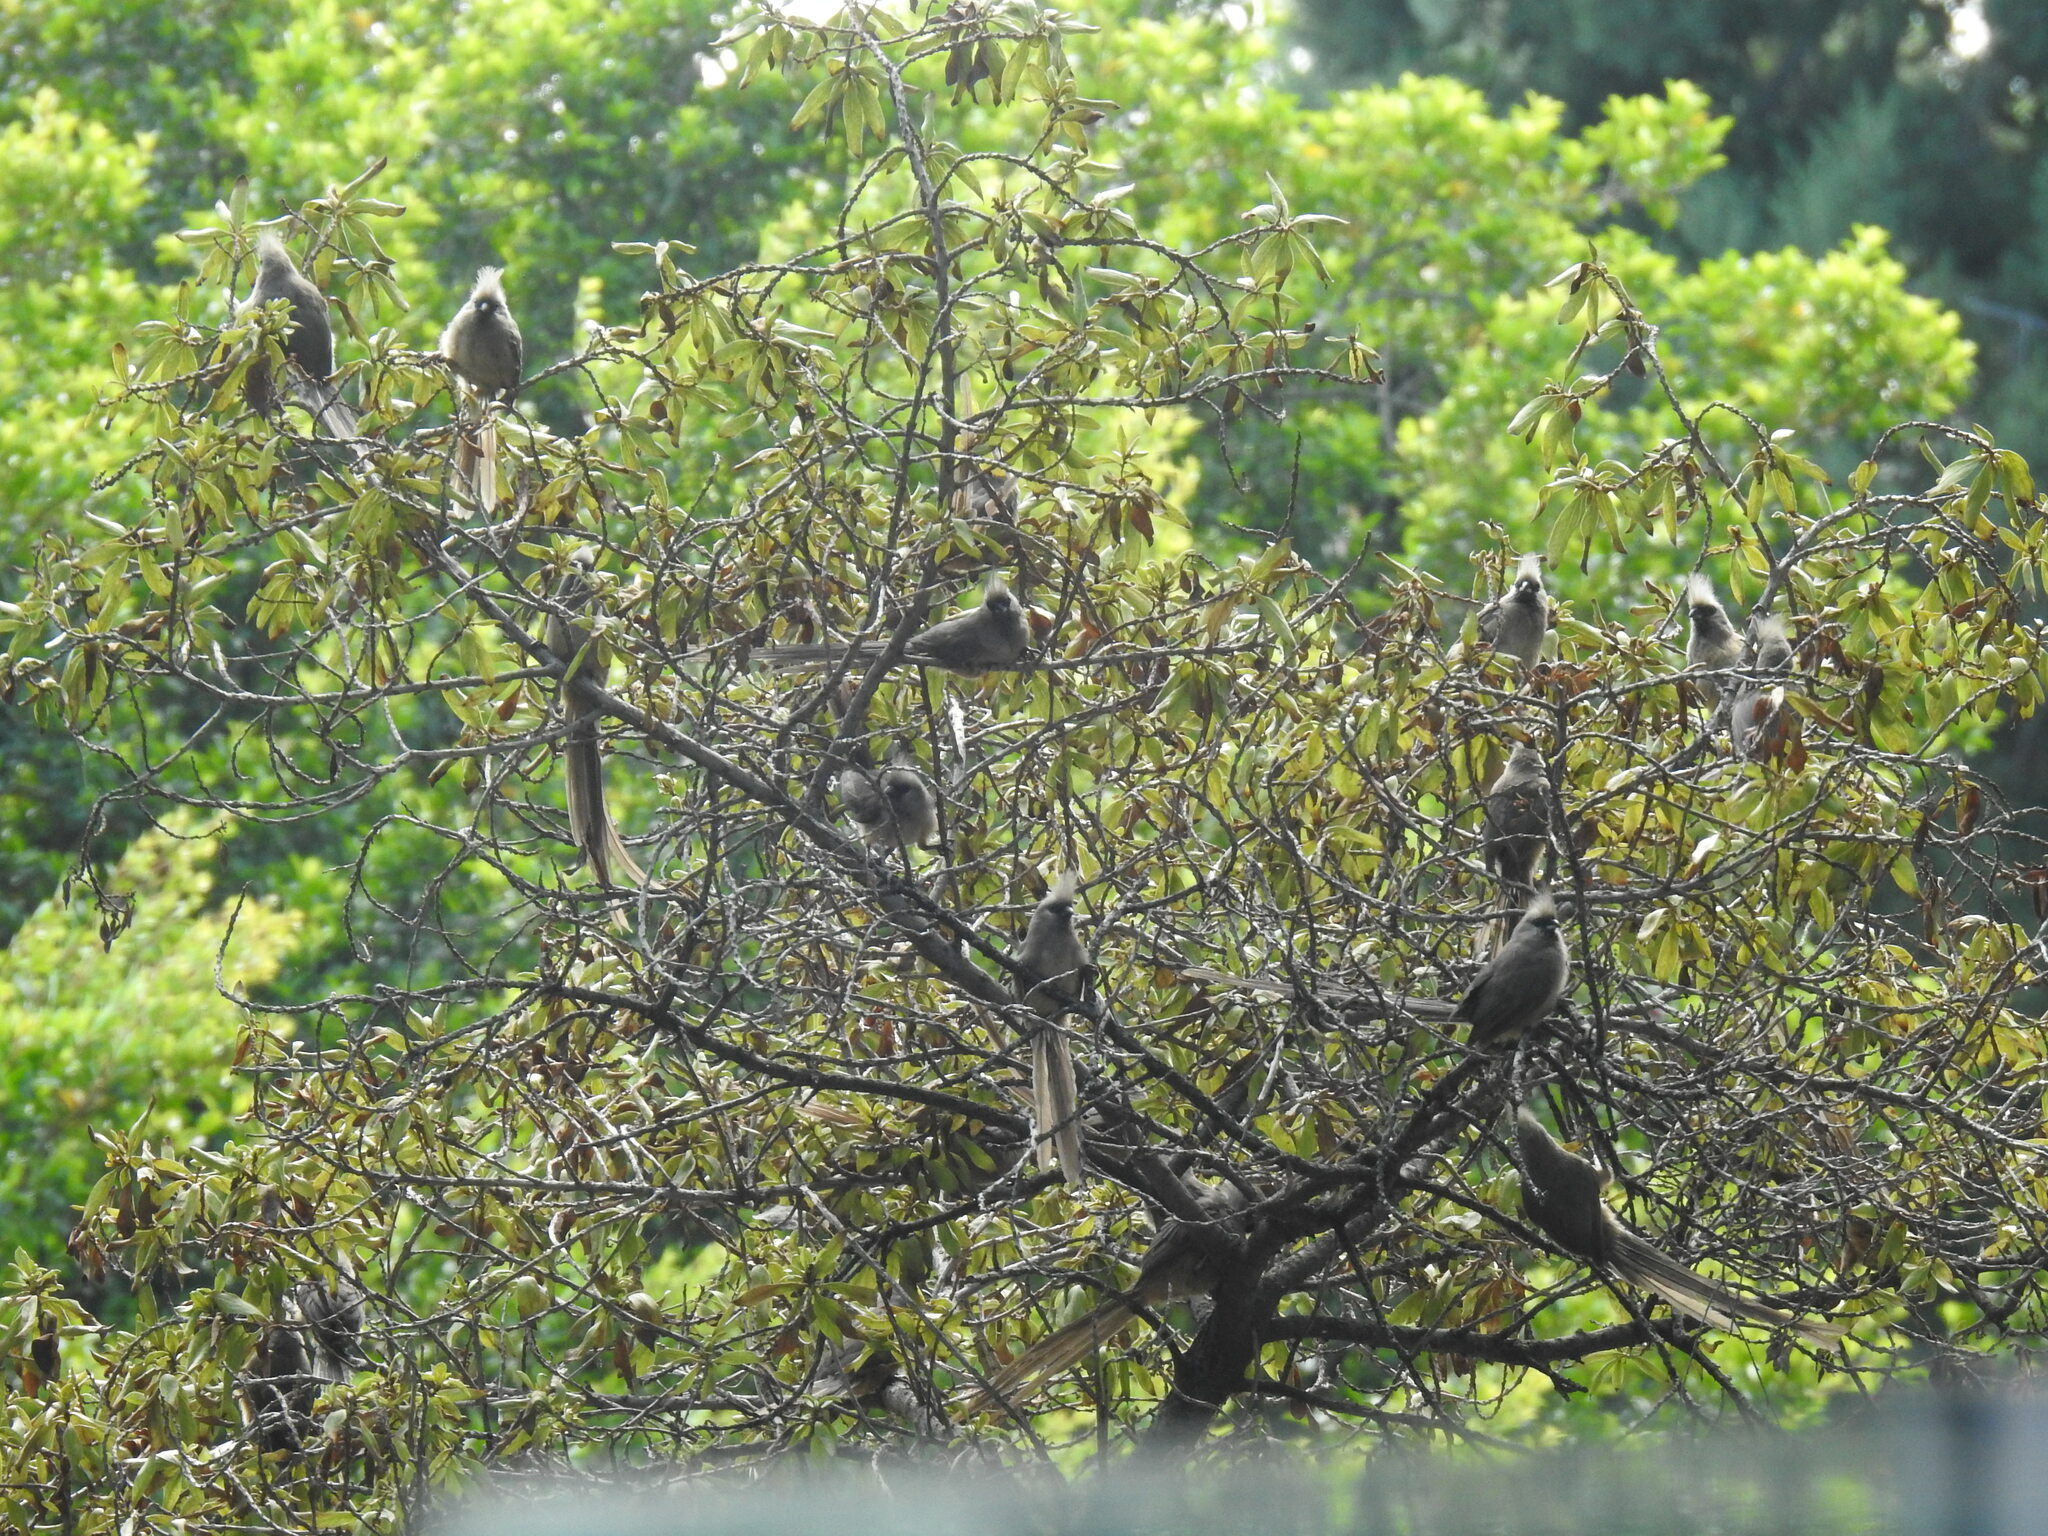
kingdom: Animalia
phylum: Chordata
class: Aves
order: Coliiformes
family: Coliidae
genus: Colius
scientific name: Colius striatus
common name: Speckled mousebird
